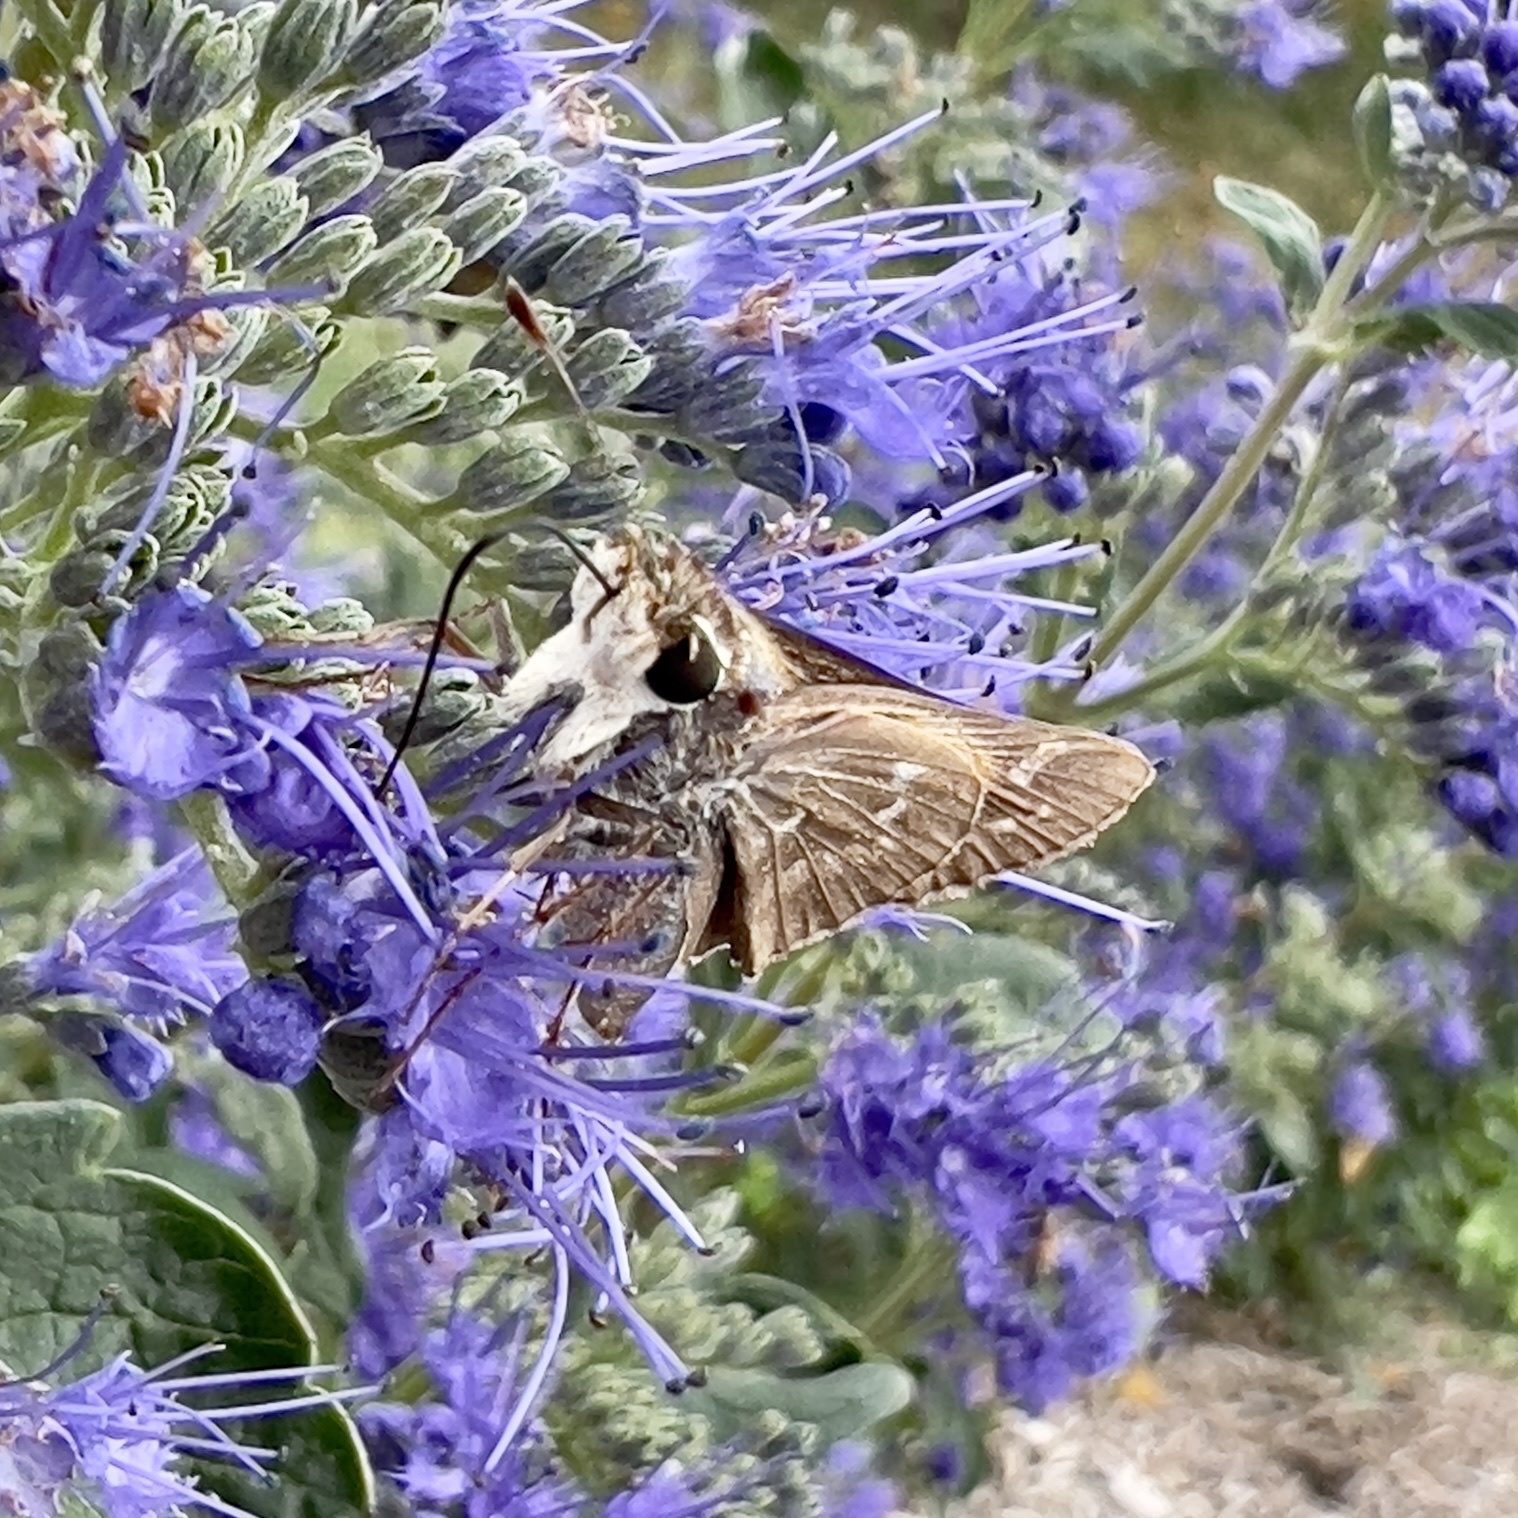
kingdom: Animalia
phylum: Arthropoda
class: Insecta
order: Lepidoptera
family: Hesperiidae
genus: Atalopedes
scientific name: Atalopedes
